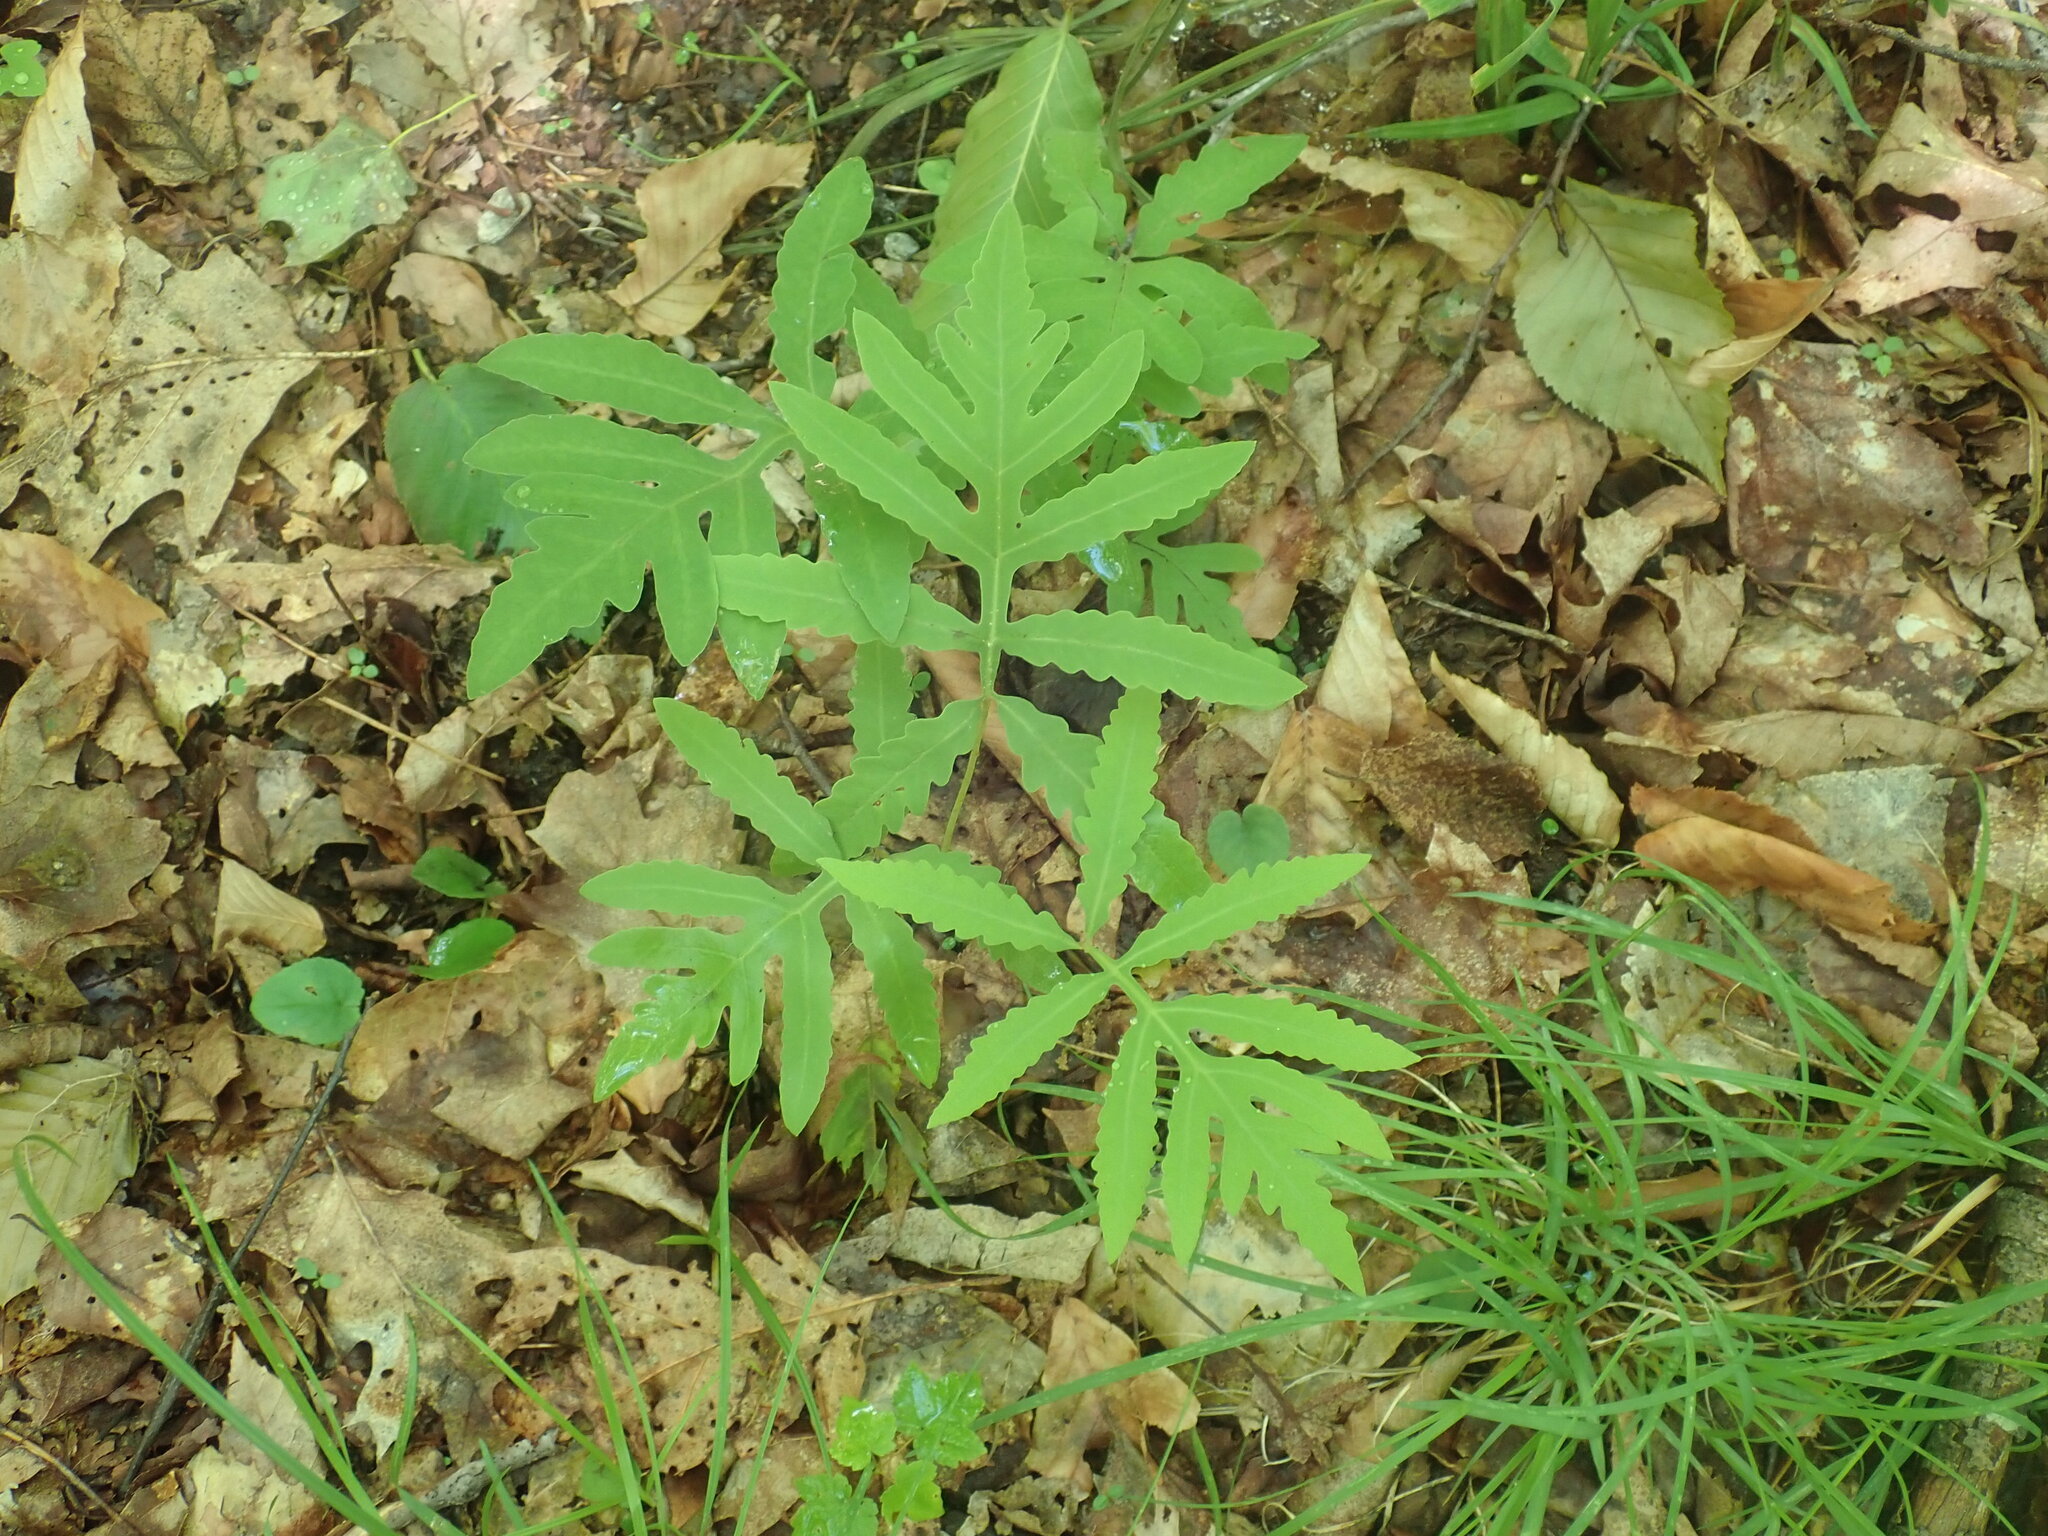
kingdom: Plantae
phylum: Tracheophyta
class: Polypodiopsida
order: Polypodiales
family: Onocleaceae
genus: Onoclea
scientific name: Onoclea sensibilis
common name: Sensitive fern
